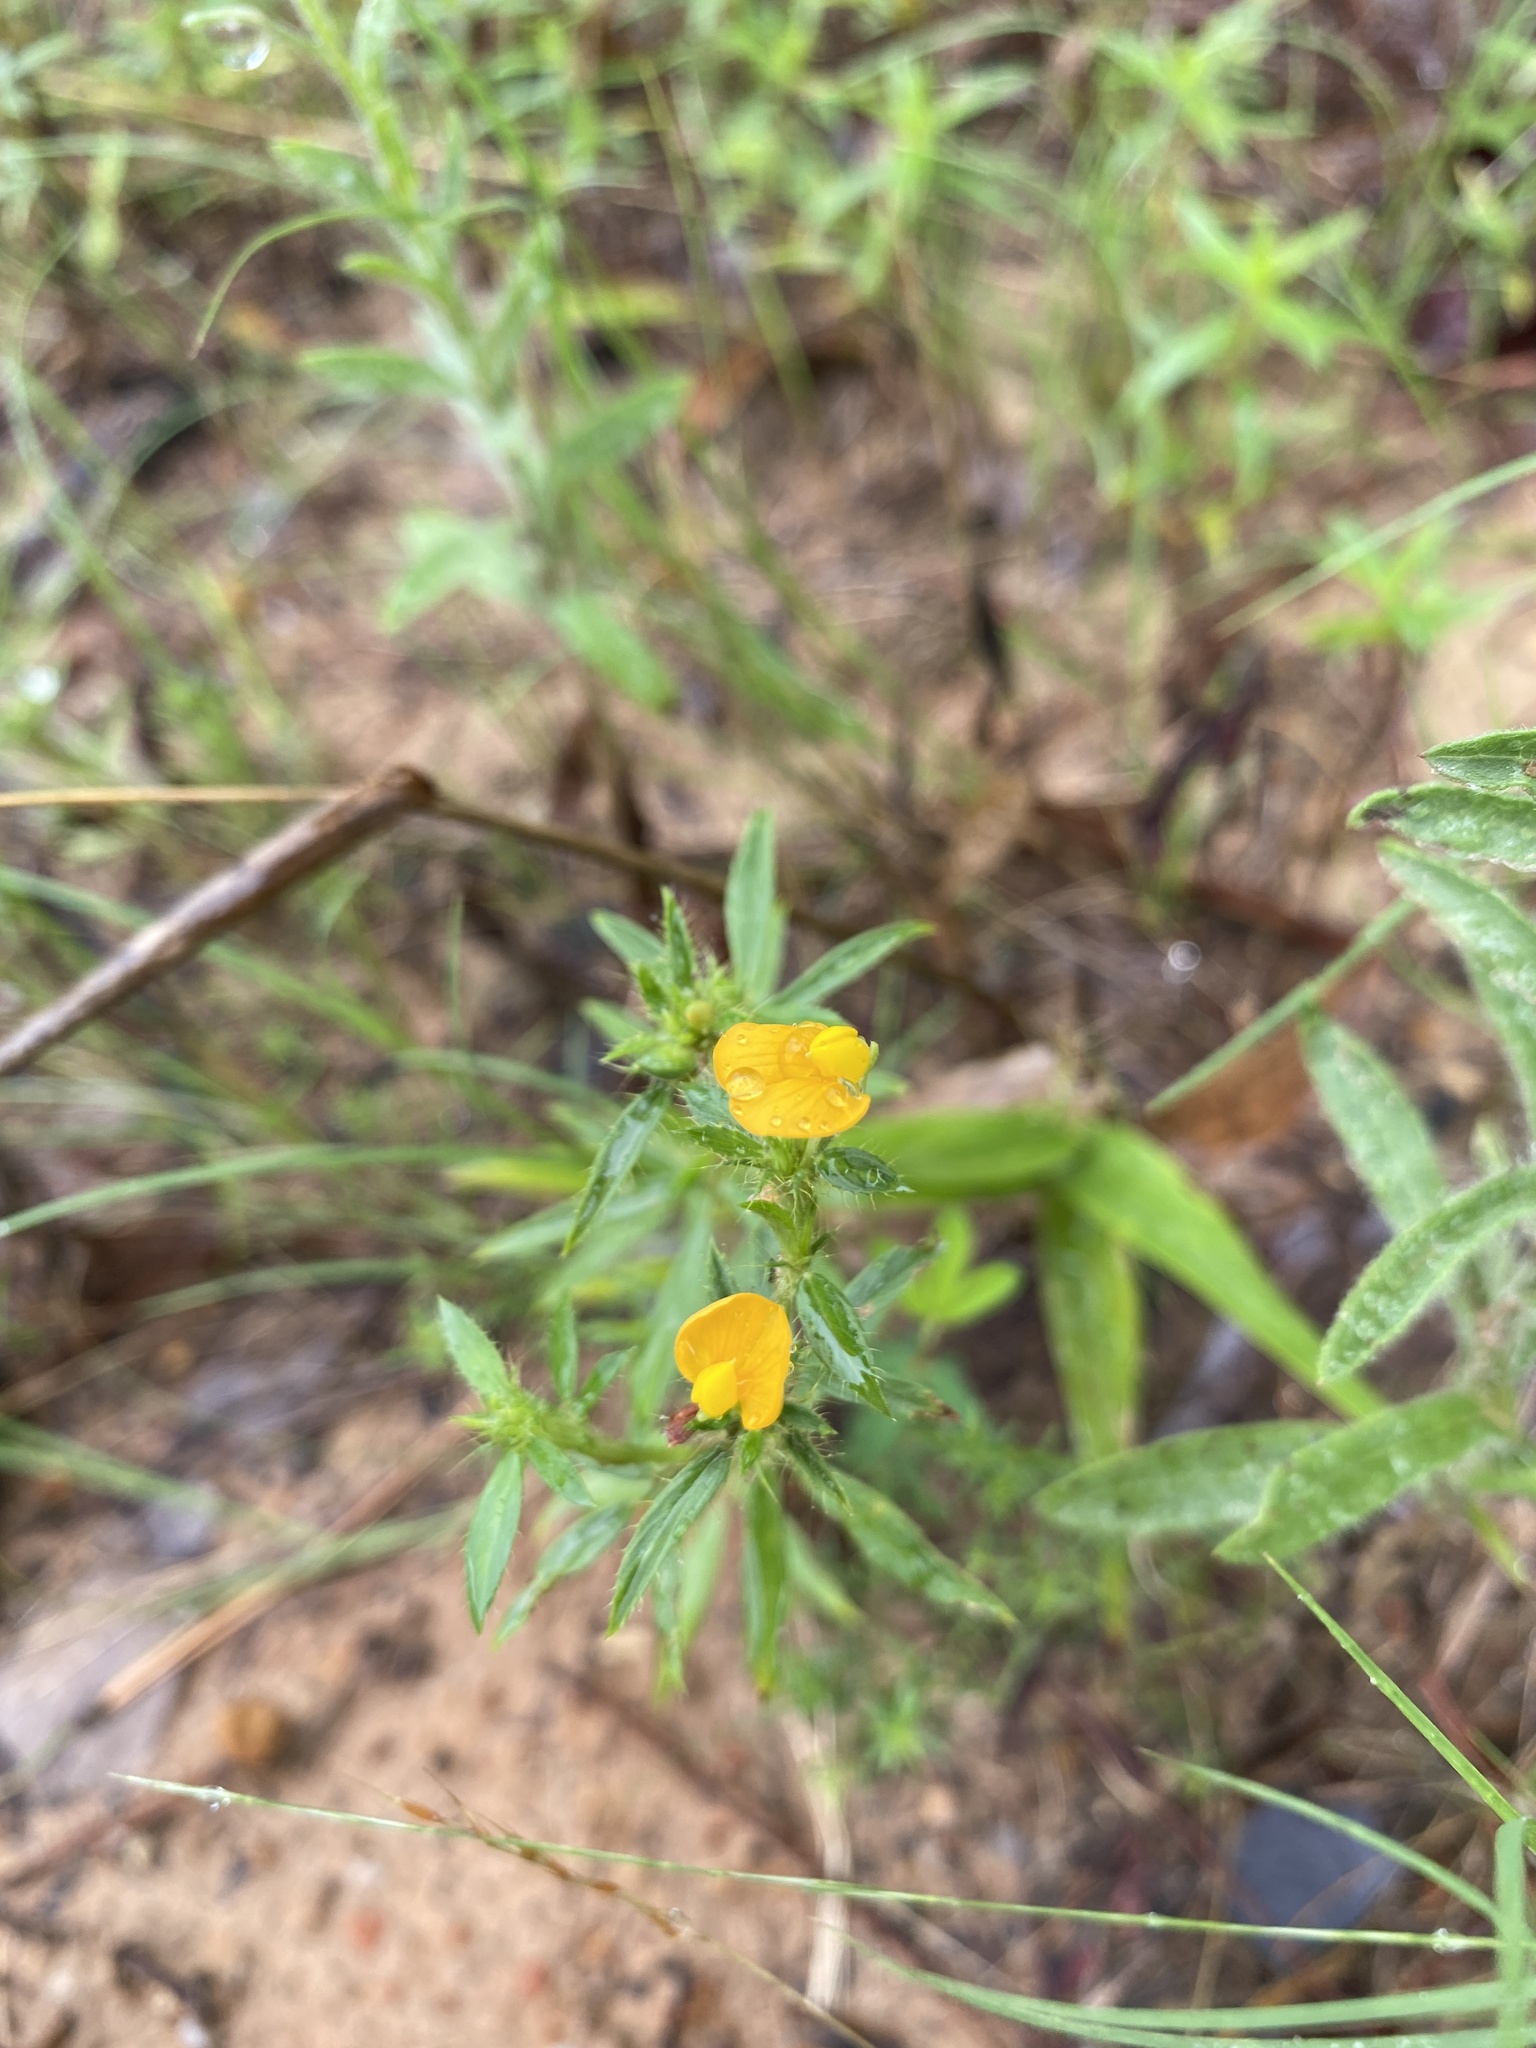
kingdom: Plantae
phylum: Tracheophyta
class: Magnoliopsida
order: Fabales
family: Fabaceae
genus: Stylosanthes
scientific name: Stylosanthes biflora
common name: Two-flower pencil-flower
